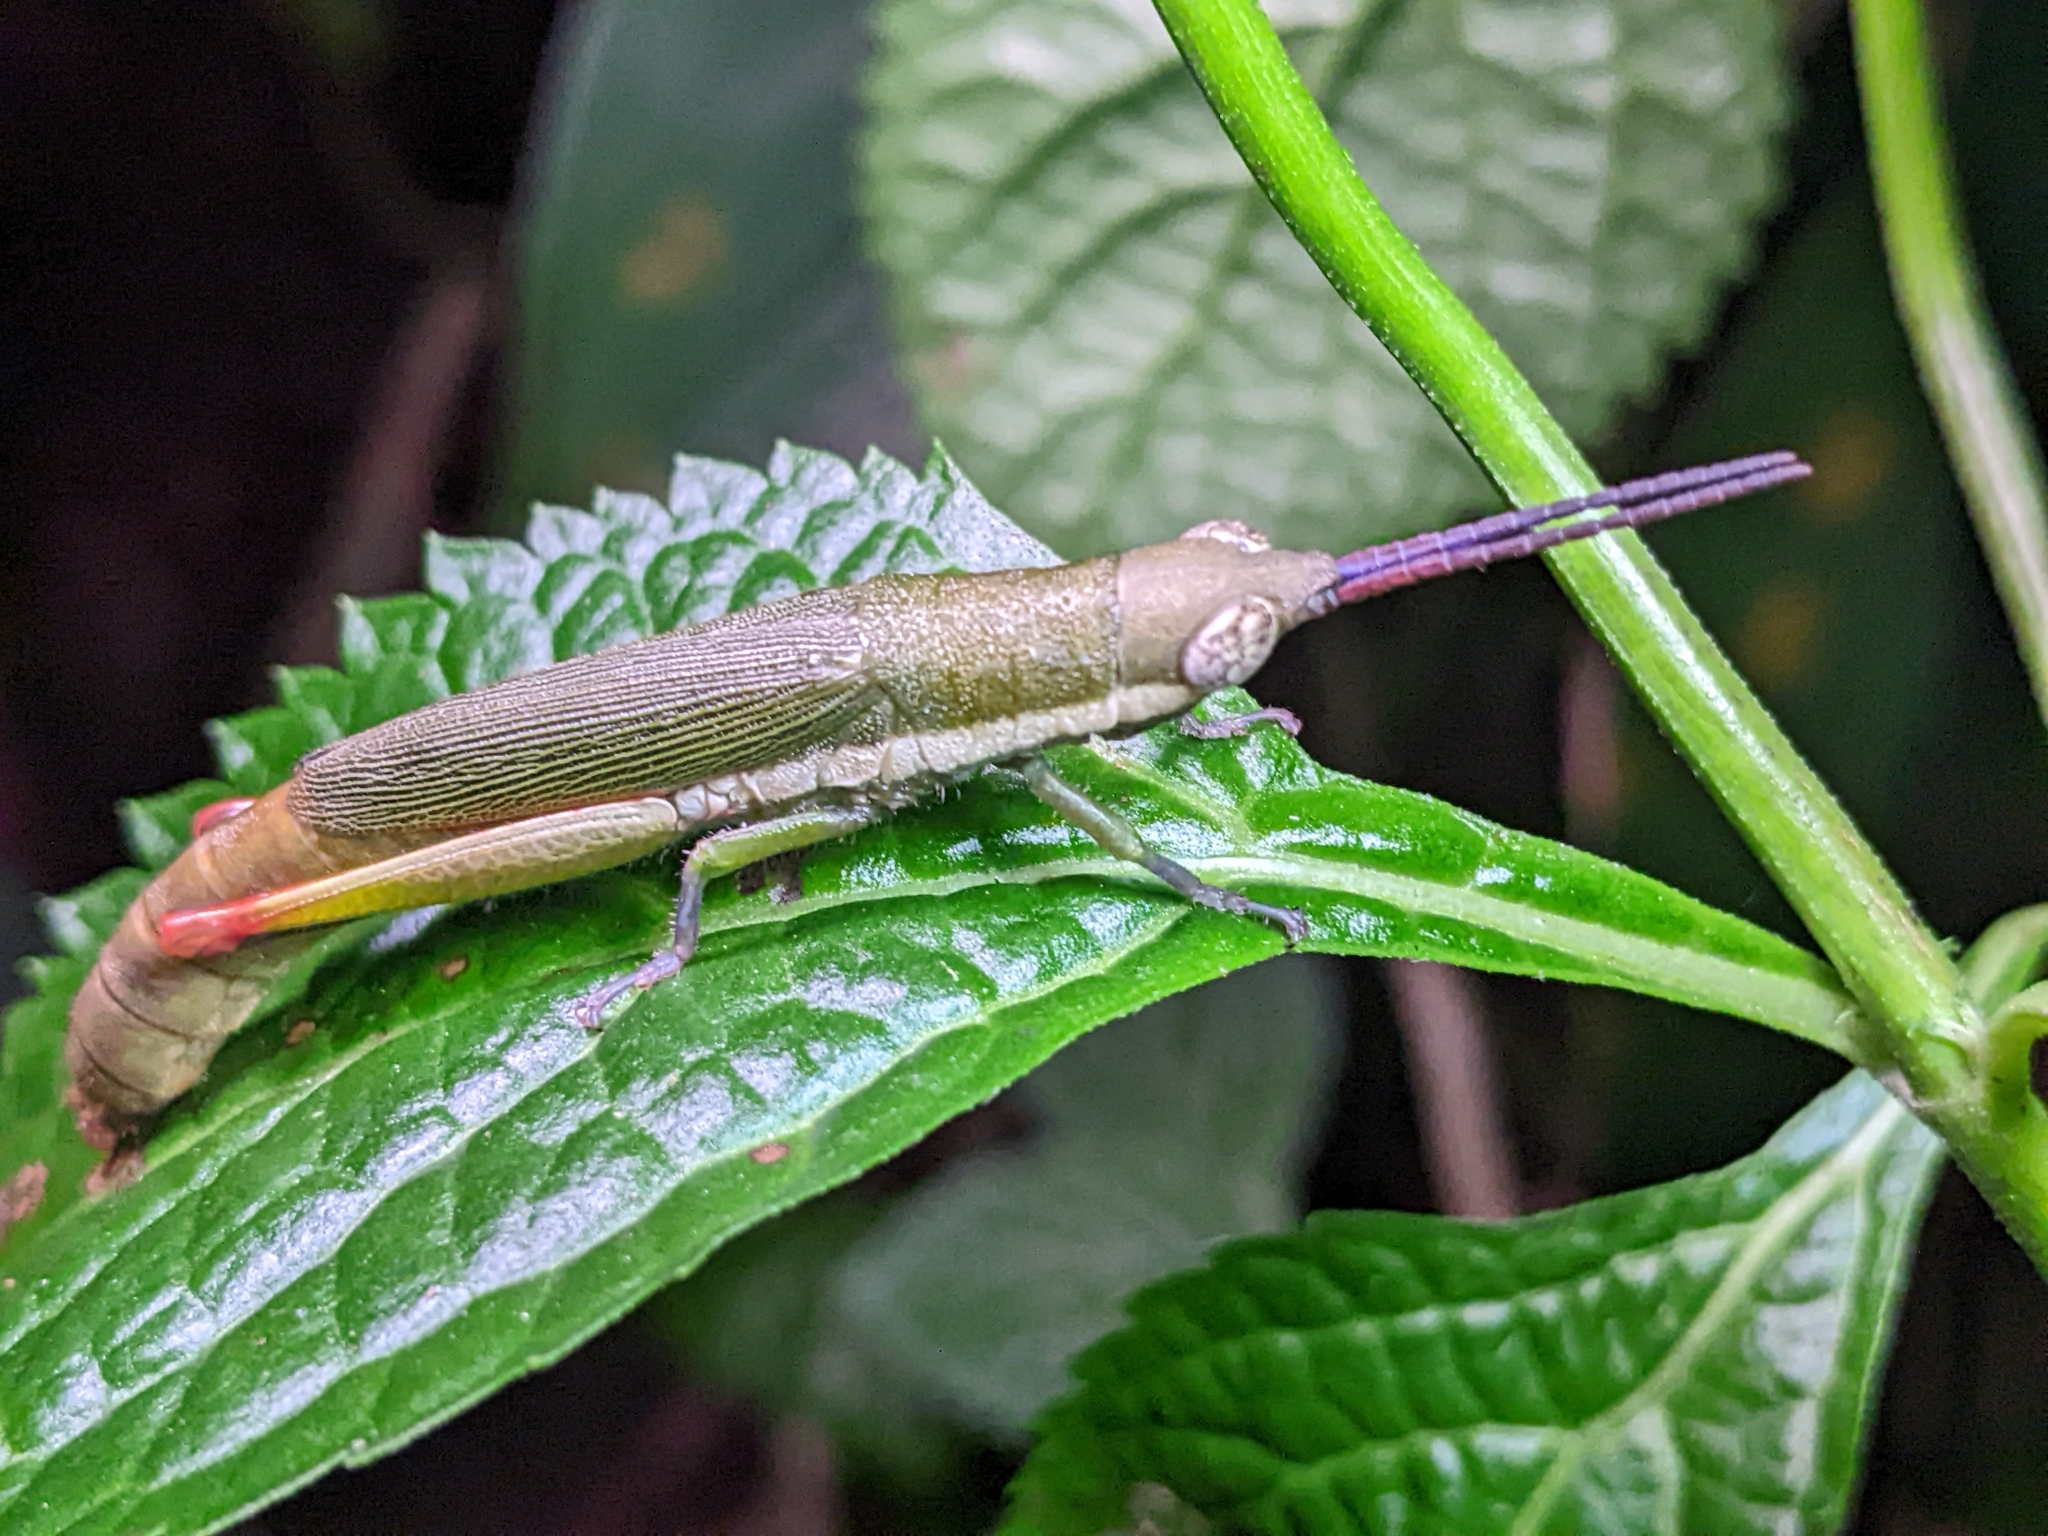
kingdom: Animalia
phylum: Arthropoda
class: Insecta
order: Orthoptera
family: Pyrgomorphidae
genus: Mitricephala
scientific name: Mitricephala milleri
